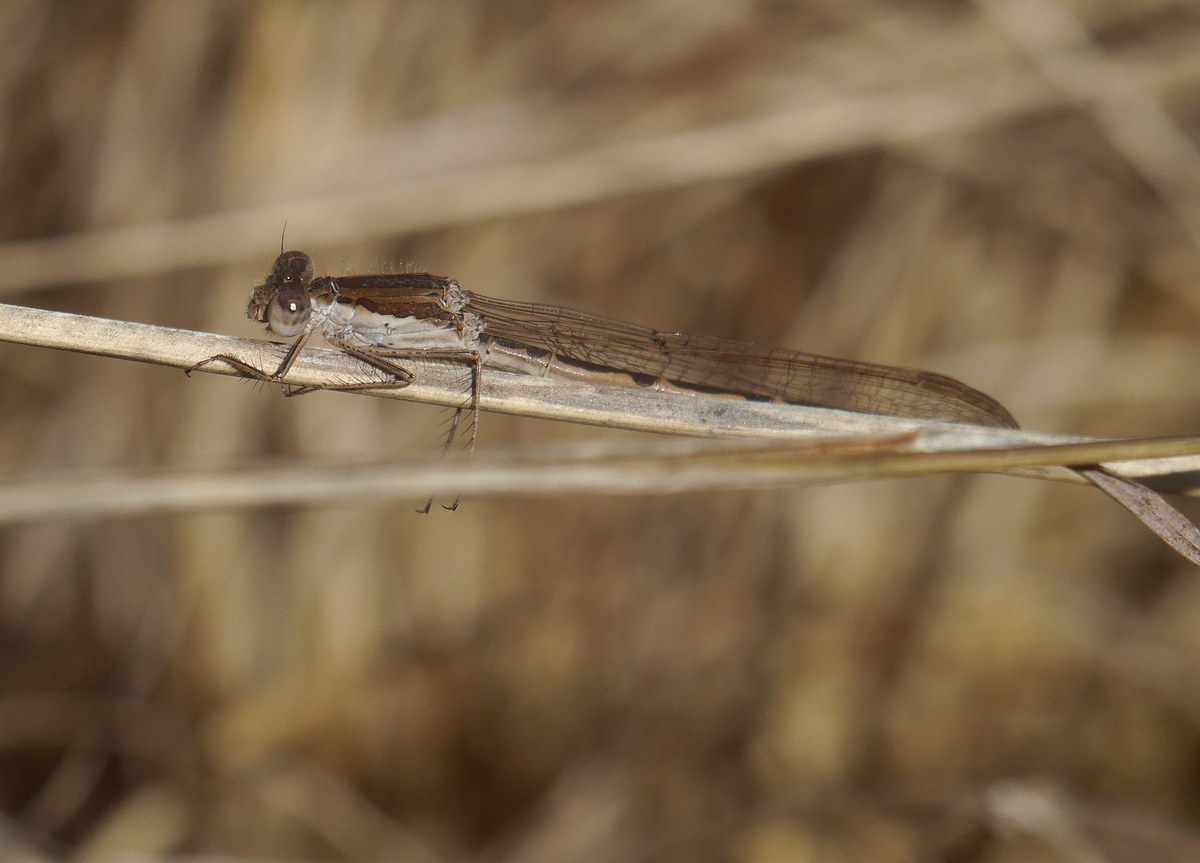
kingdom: Animalia
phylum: Arthropoda
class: Insecta
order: Odonata
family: Lestidae
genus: Sympecma
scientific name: Sympecma fusca
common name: Common winter damsel
